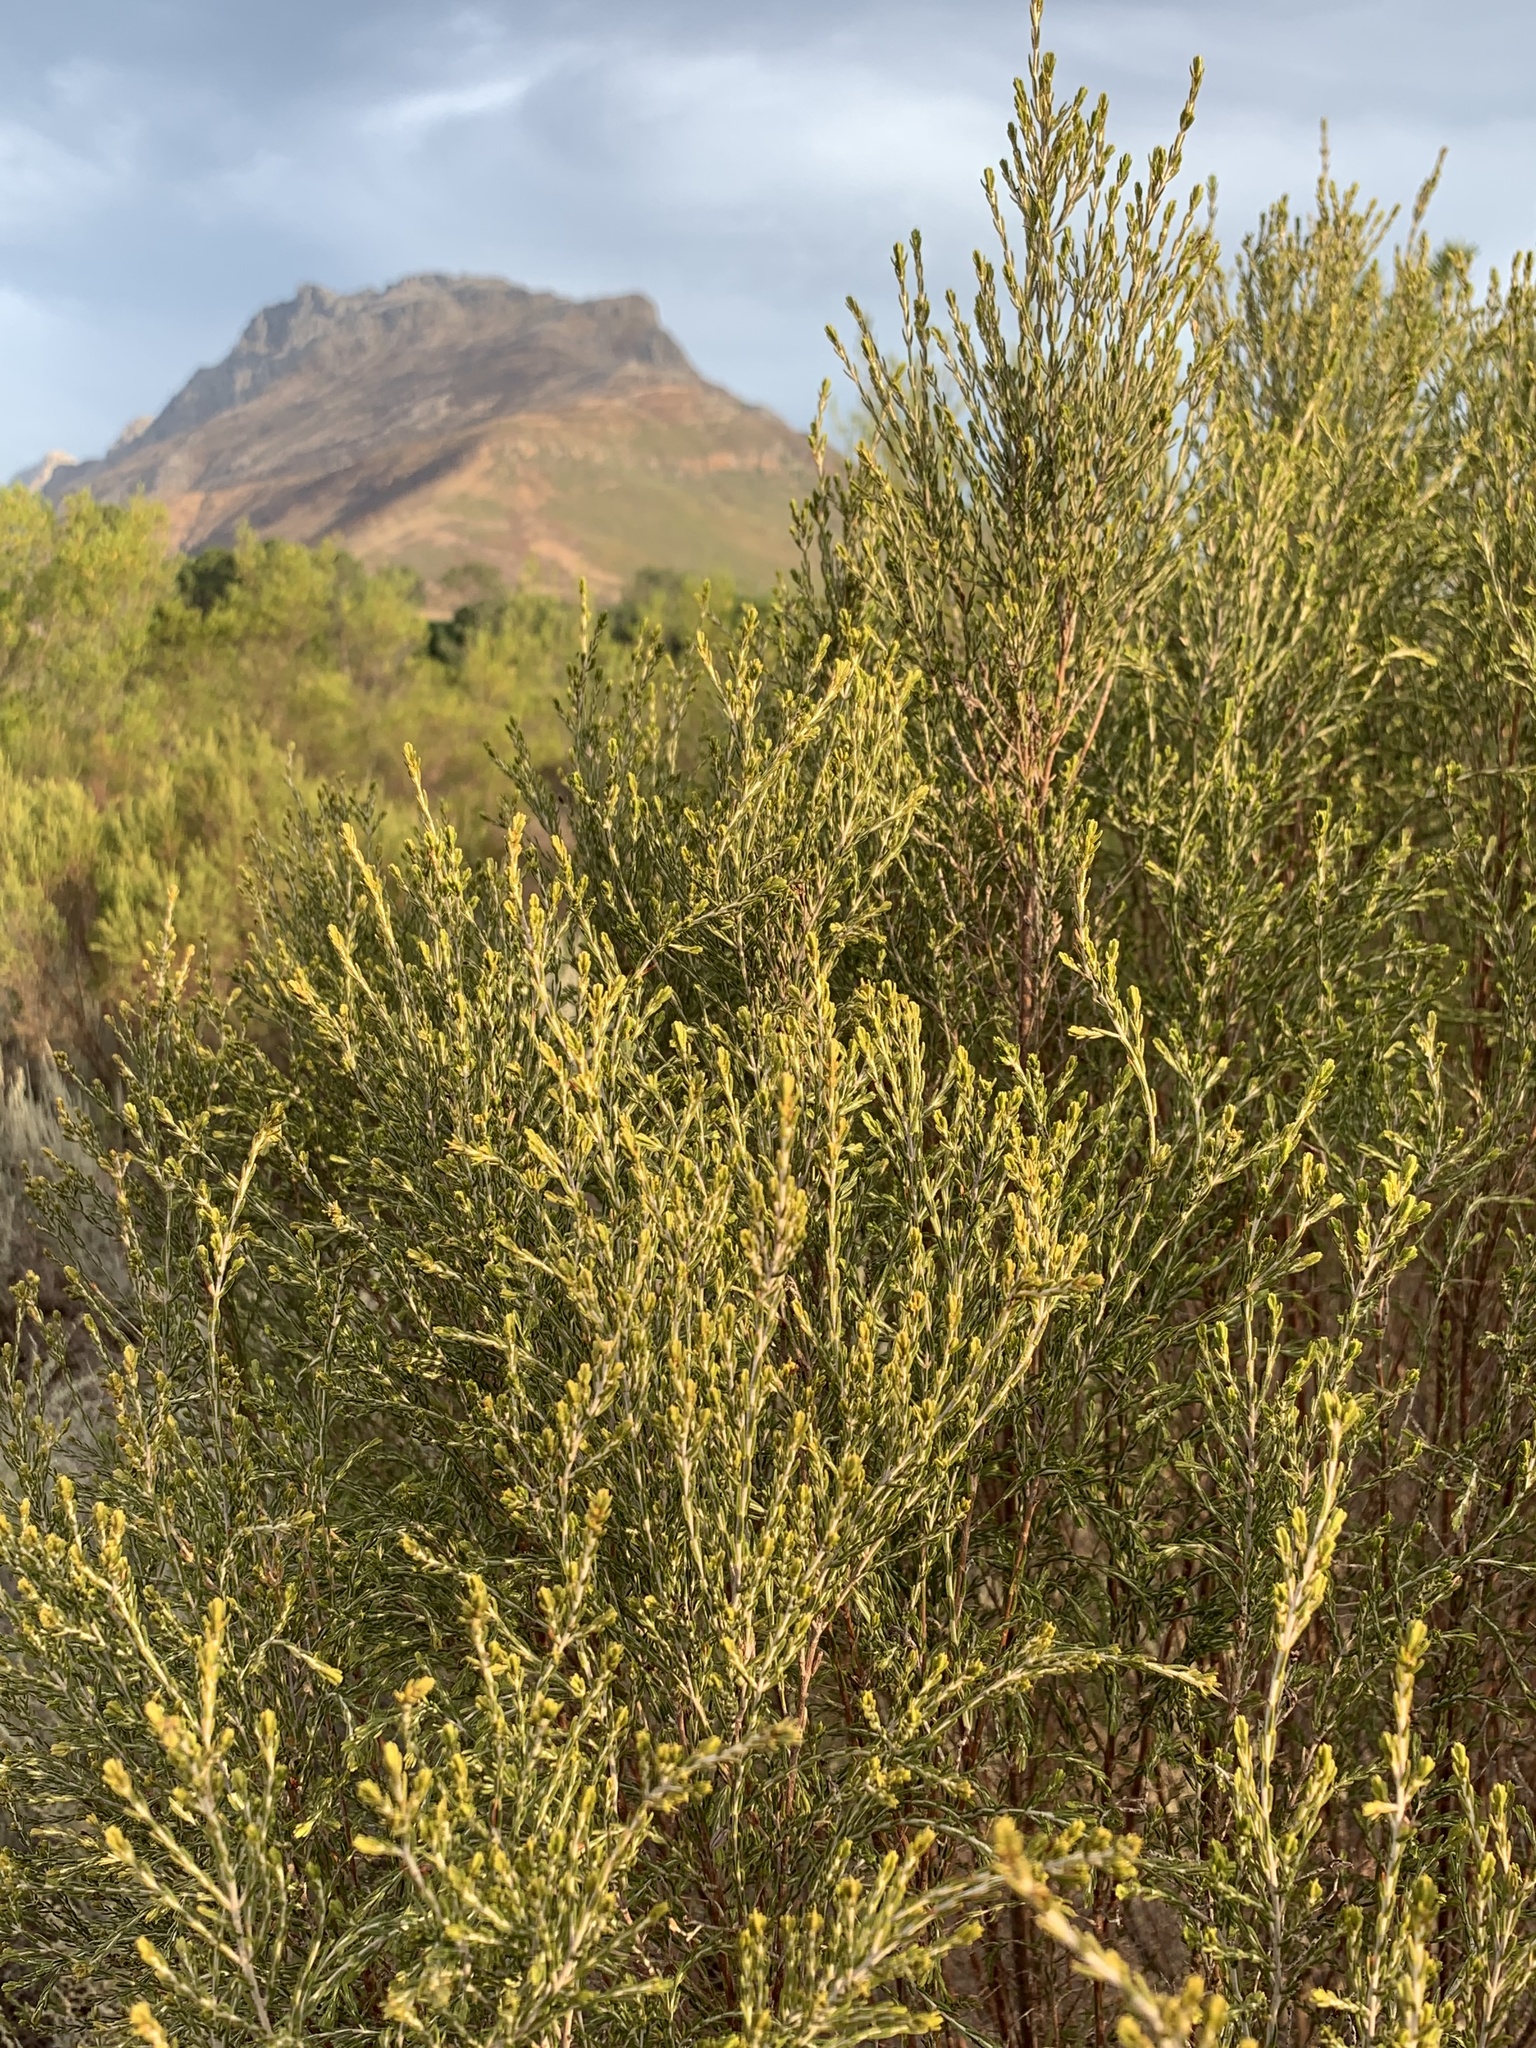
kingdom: Plantae
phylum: Tracheophyta
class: Magnoliopsida
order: Malvales
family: Thymelaeaceae
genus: Passerina
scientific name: Passerina corymbosa
